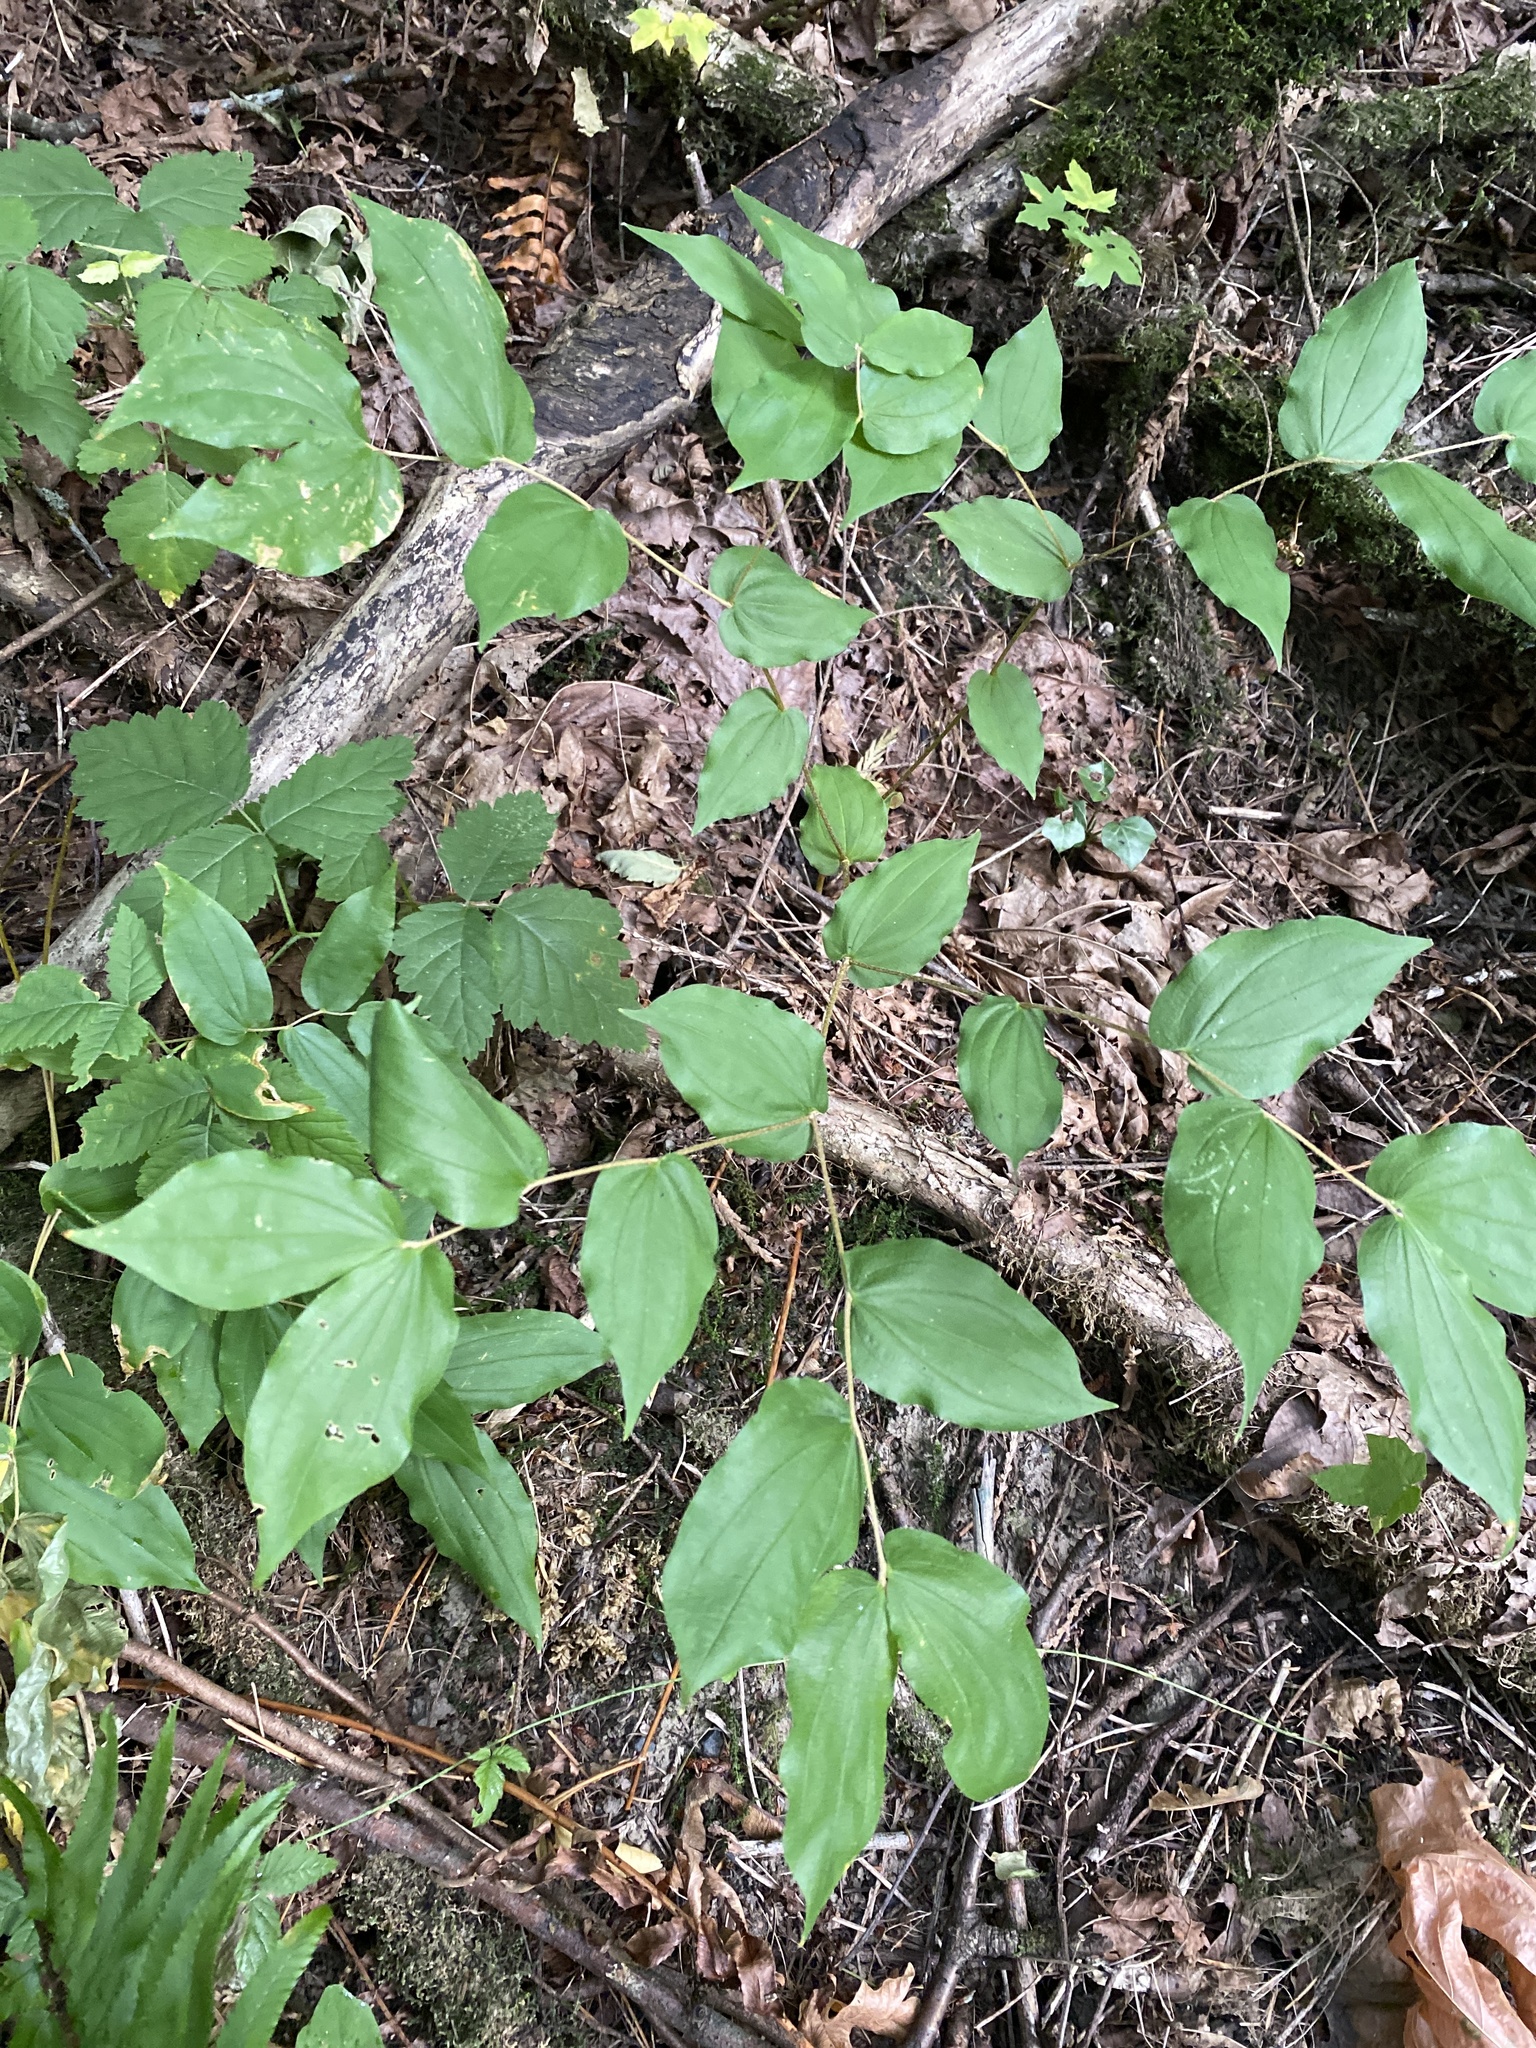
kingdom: Plantae
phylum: Tracheophyta
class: Liliopsida
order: Liliales
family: Liliaceae
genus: Prosartes
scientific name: Prosartes hookeri
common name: Fairy-bells
